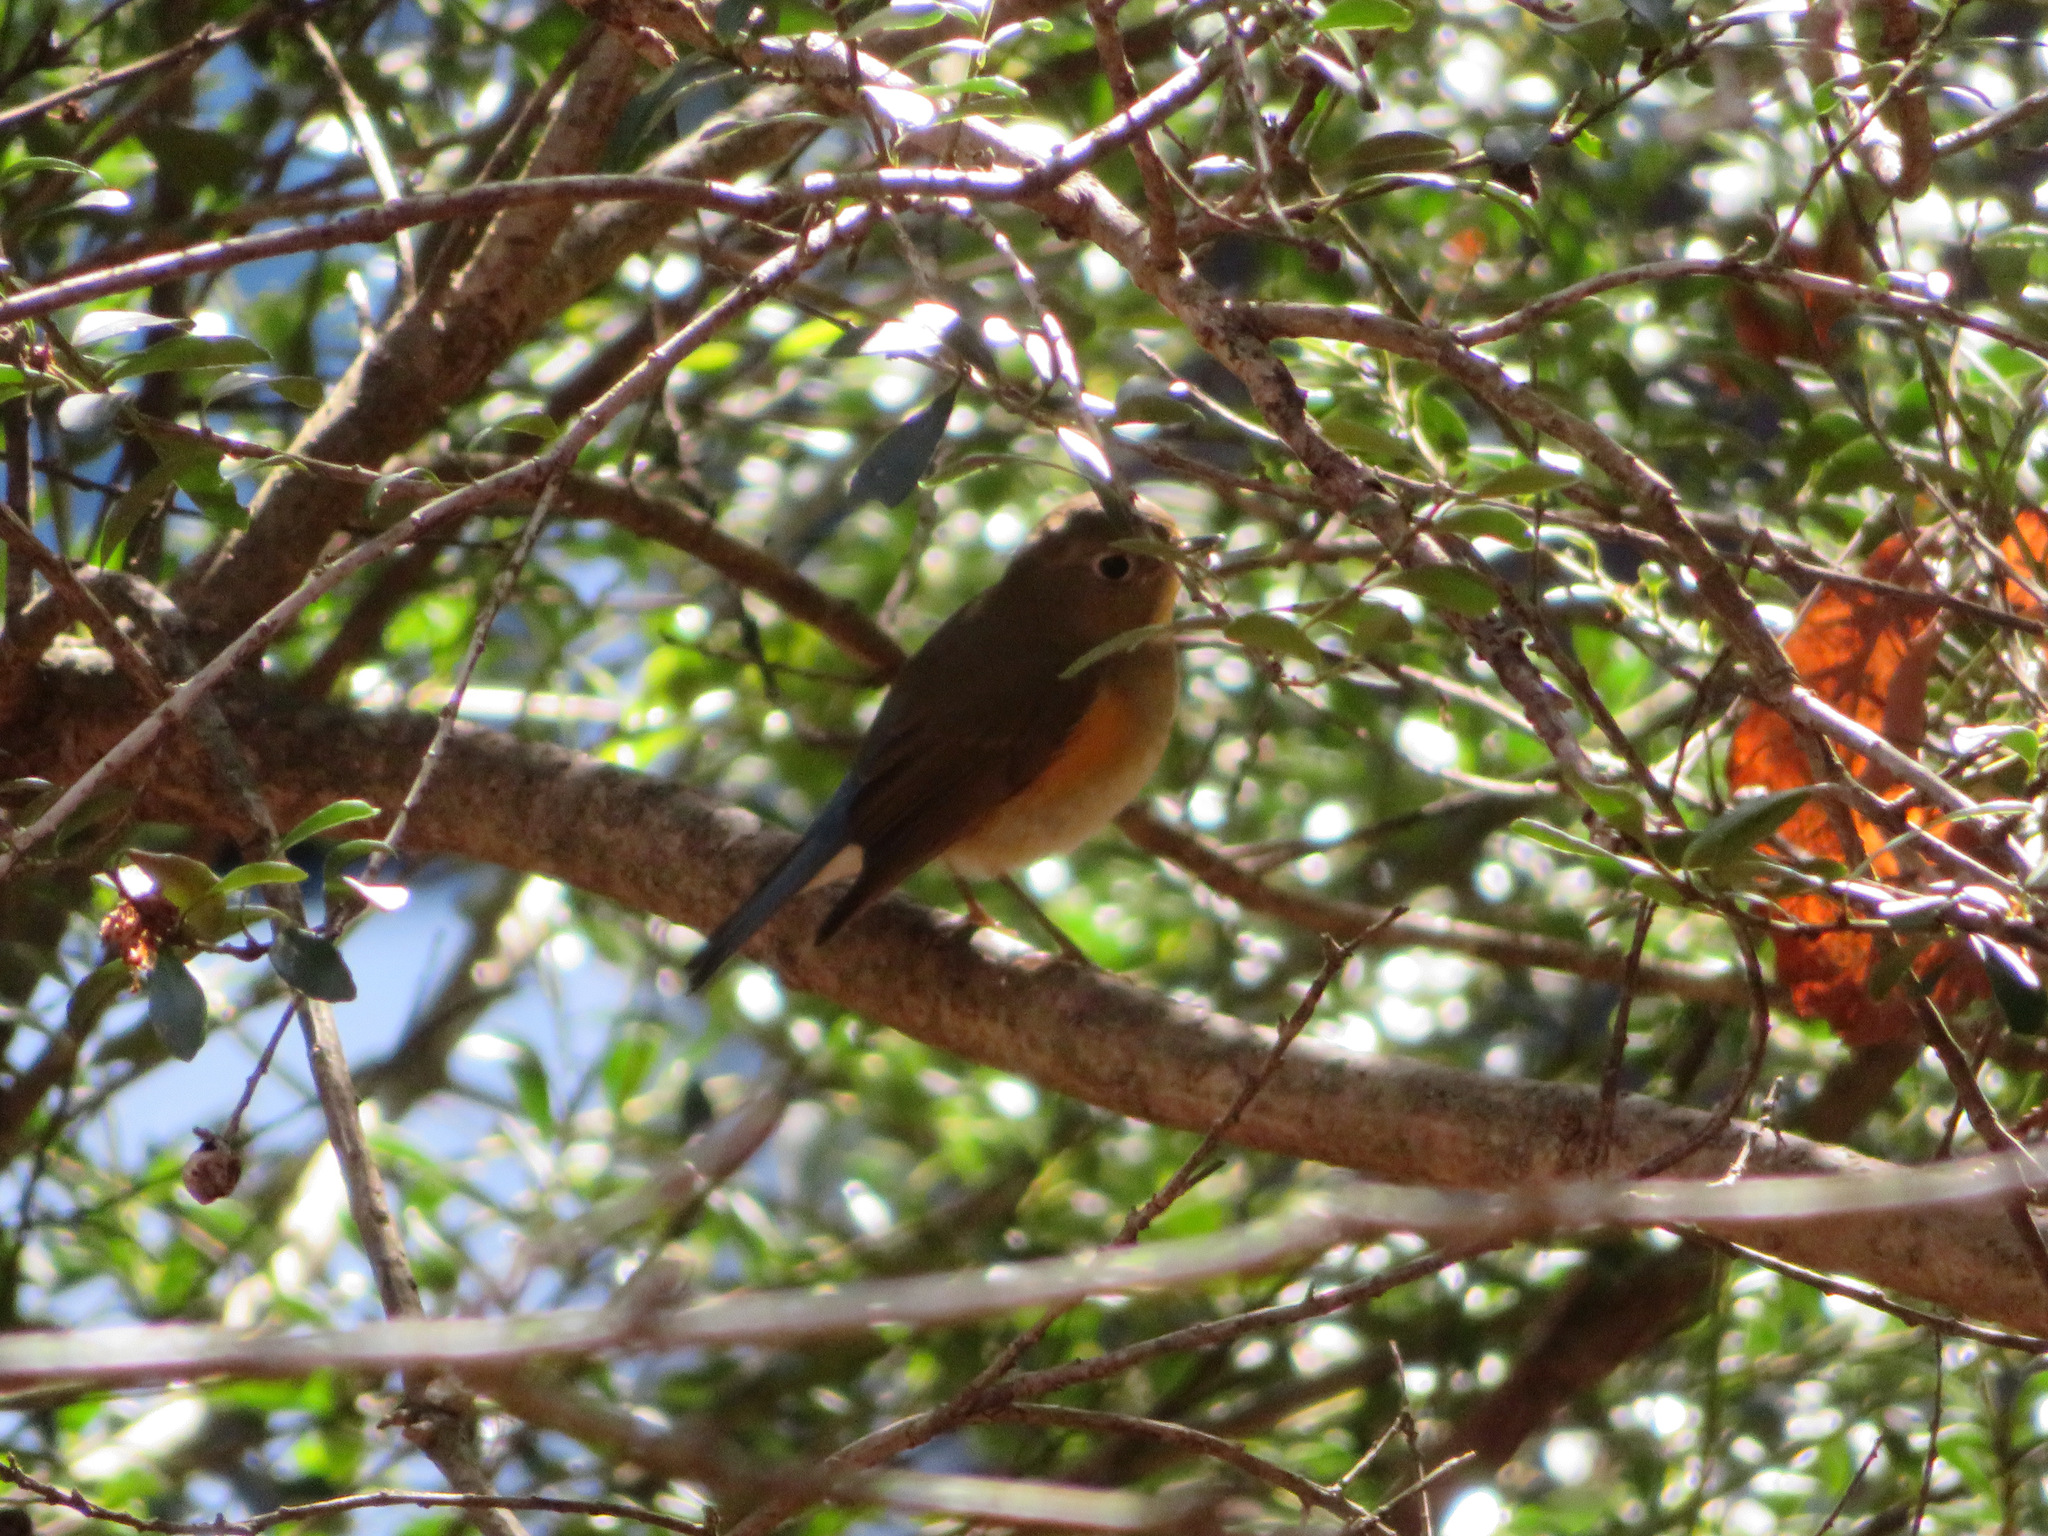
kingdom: Animalia
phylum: Chordata
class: Aves
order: Passeriformes
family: Muscicapidae
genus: Tarsiger
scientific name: Tarsiger cyanurus
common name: Red-flanked bluetail
